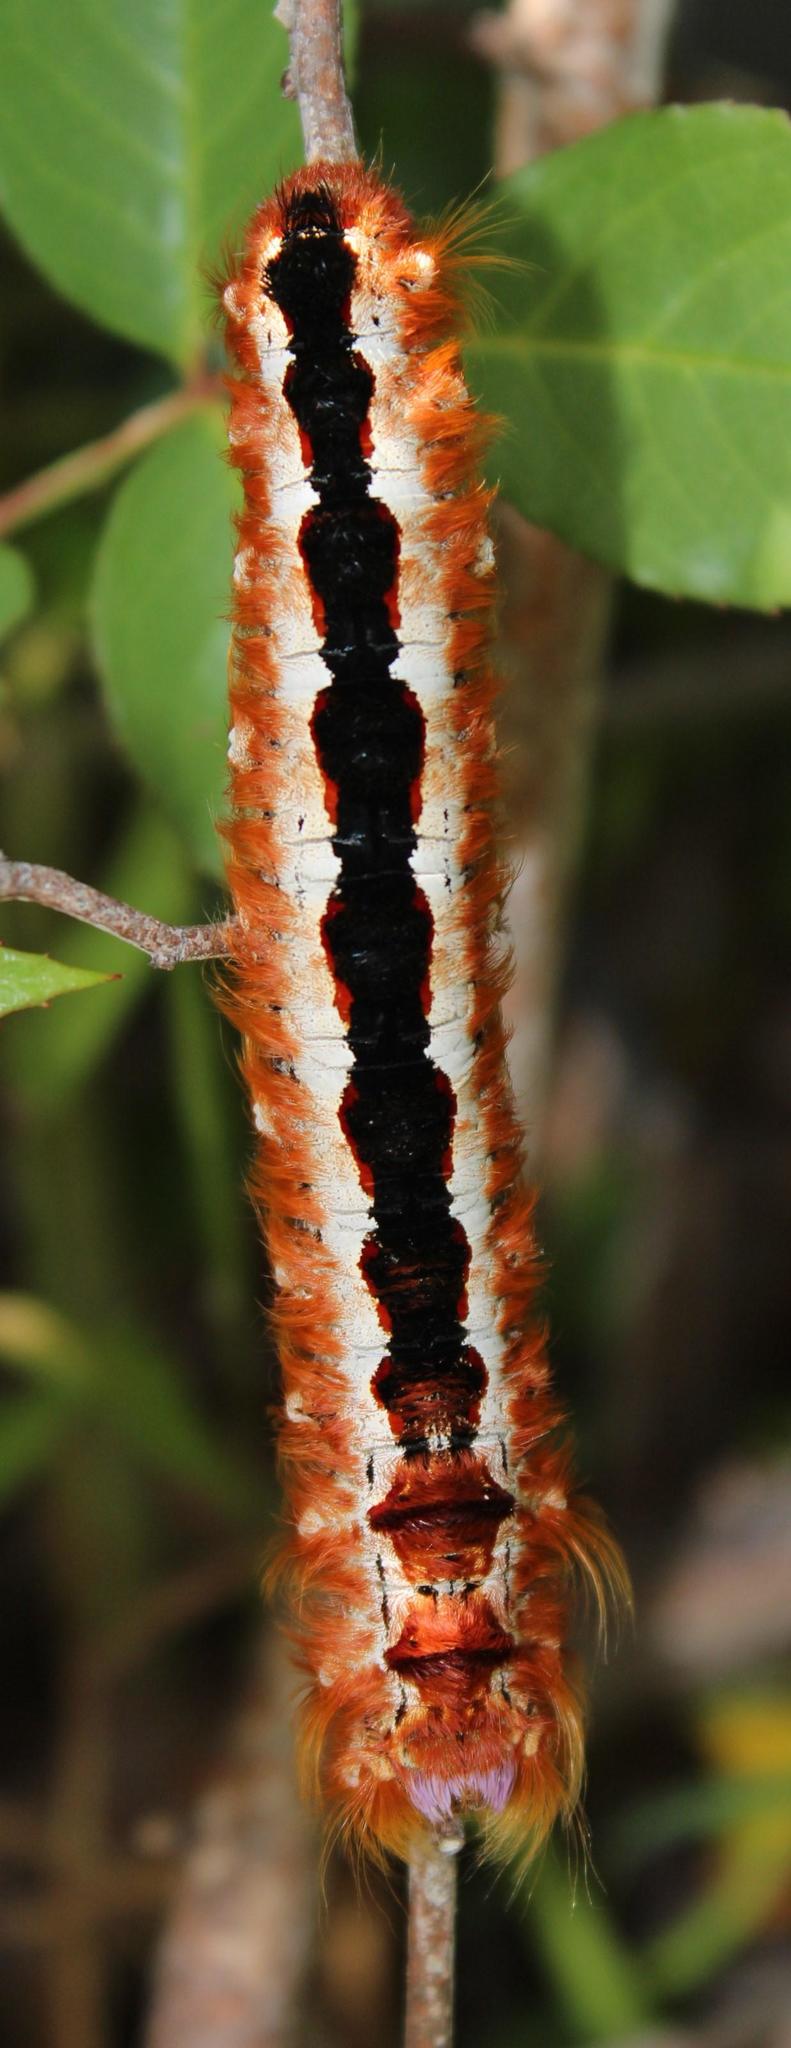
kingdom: Animalia
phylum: Arthropoda
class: Insecta
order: Lepidoptera
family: Lasiocampidae
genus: Eutricha
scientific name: Eutricha capensis
